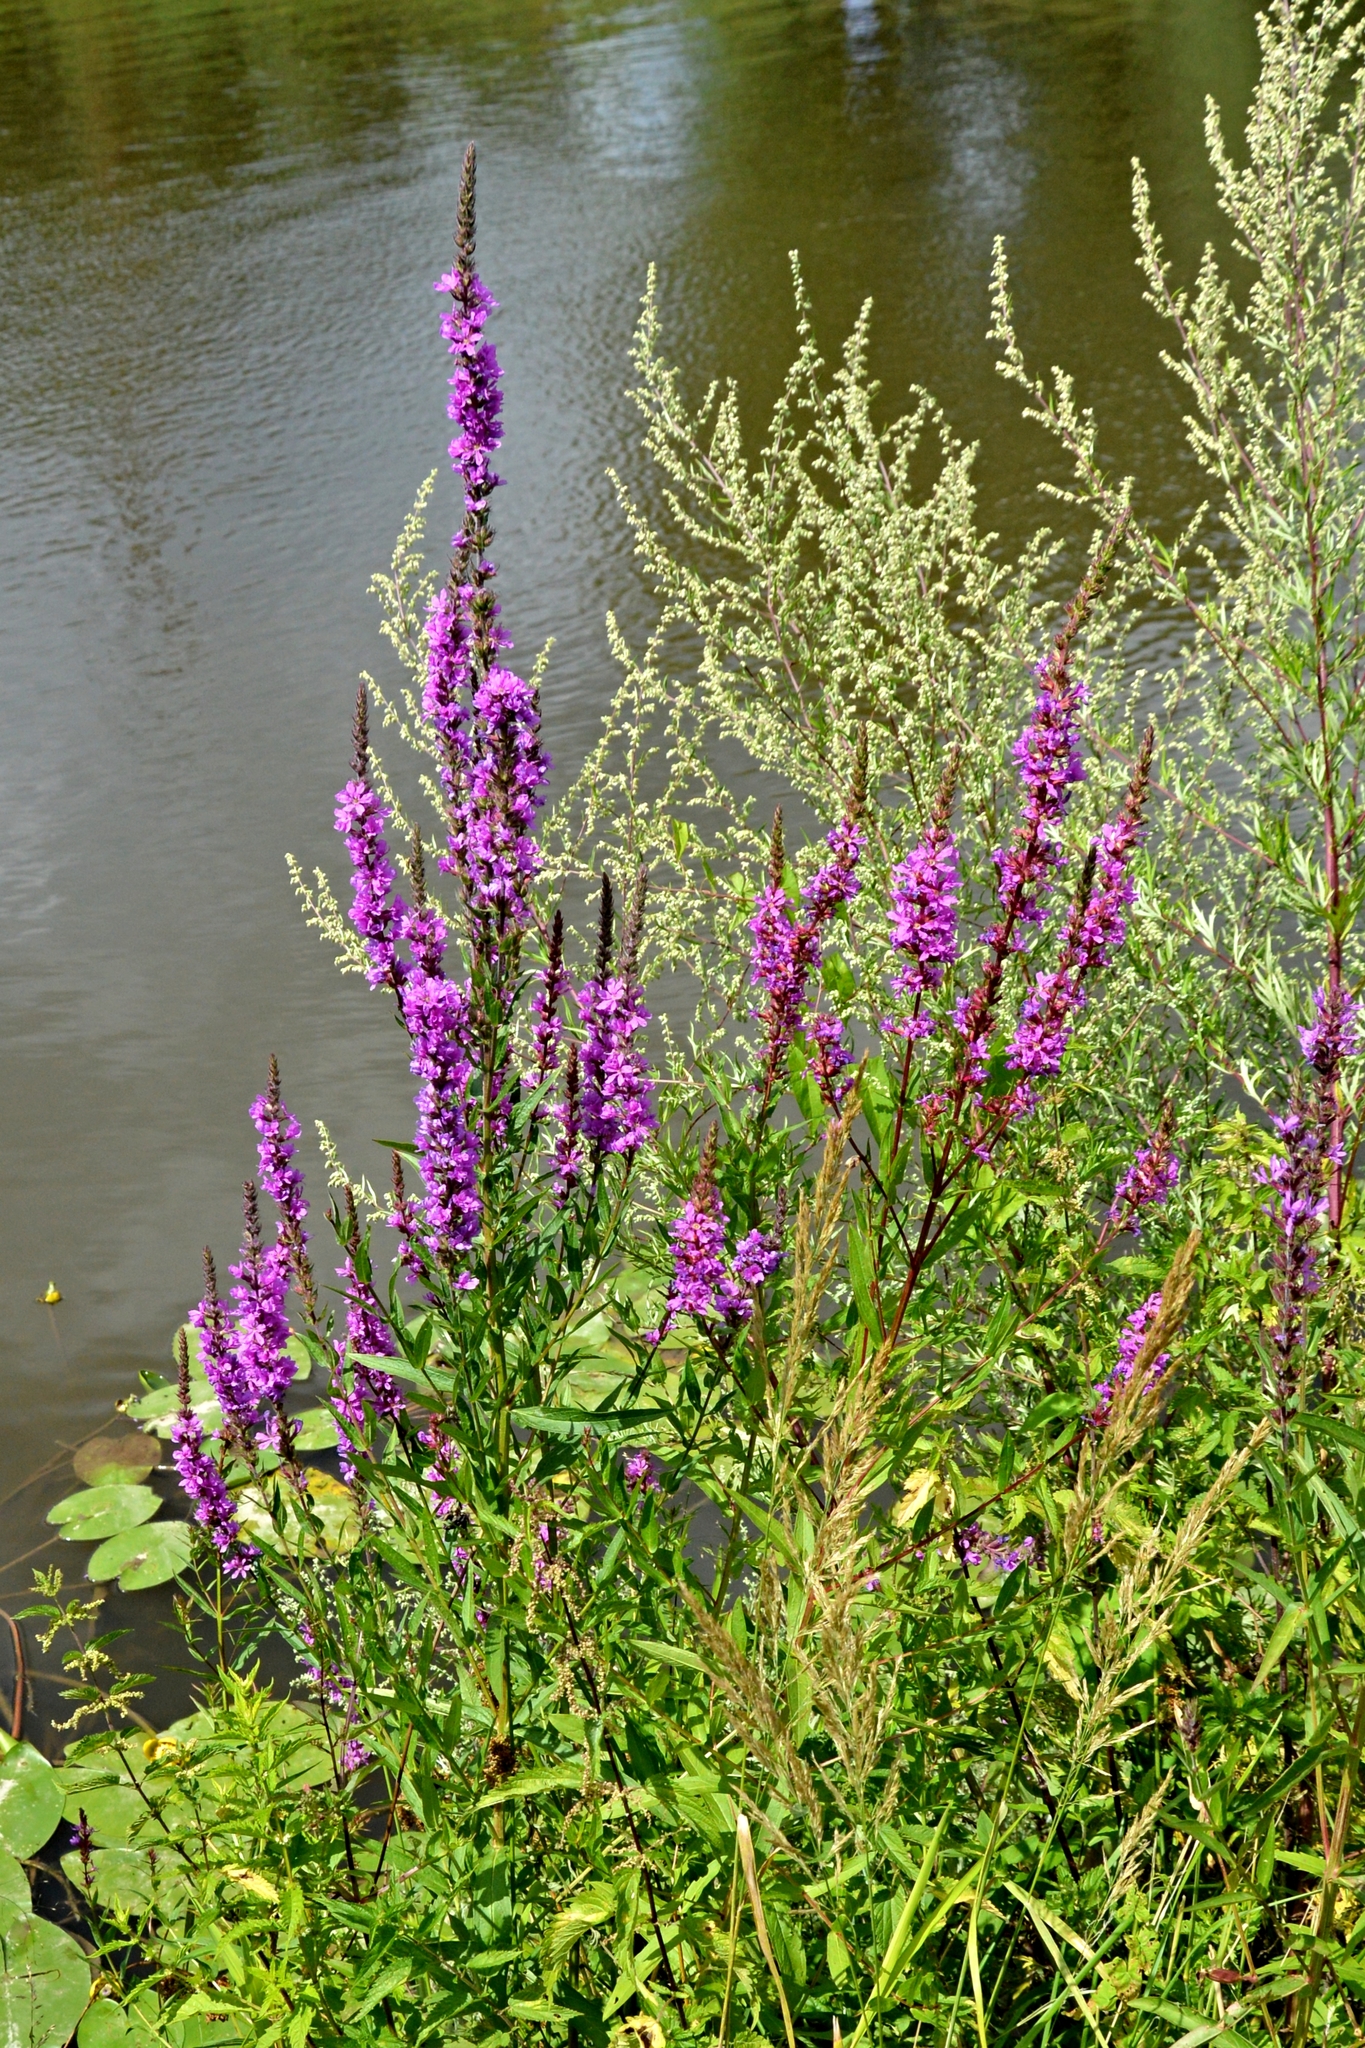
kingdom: Plantae
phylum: Tracheophyta
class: Magnoliopsida
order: Myrtales
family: Lythraceae
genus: Lythrum
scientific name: Lythrum salicaria
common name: Purple loosestrife
